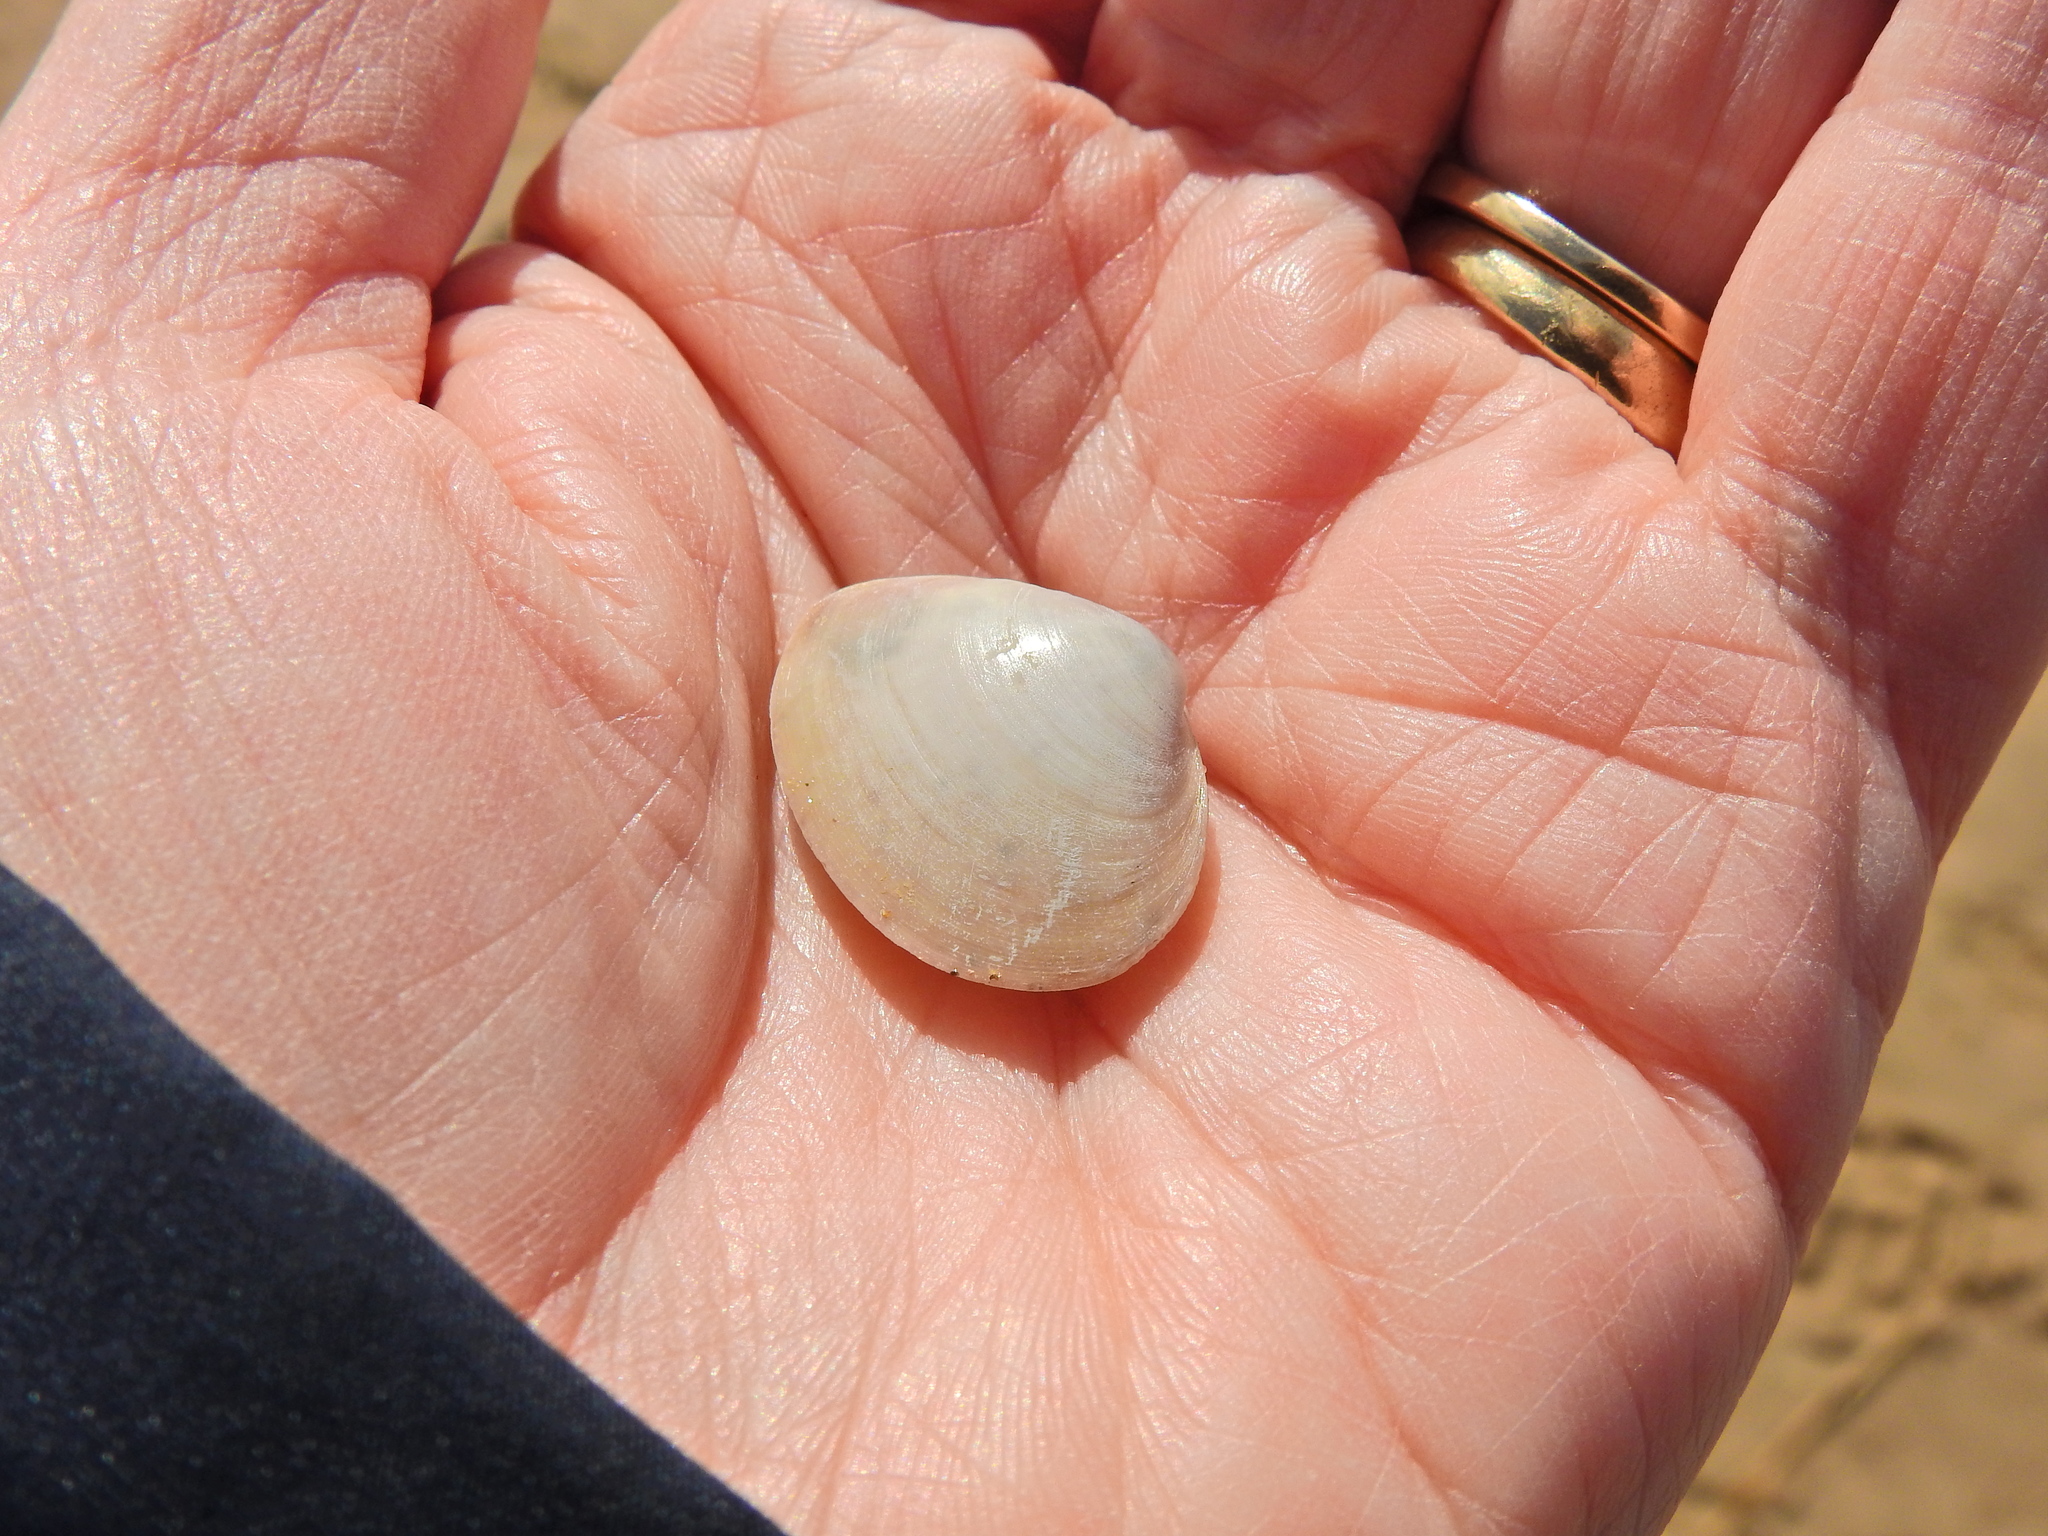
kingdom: Animalia
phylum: Mollusca
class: Bivalvia
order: Cardiida
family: Tellinidae
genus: Macoma
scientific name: Macoma balthica
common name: Baltic tellin
